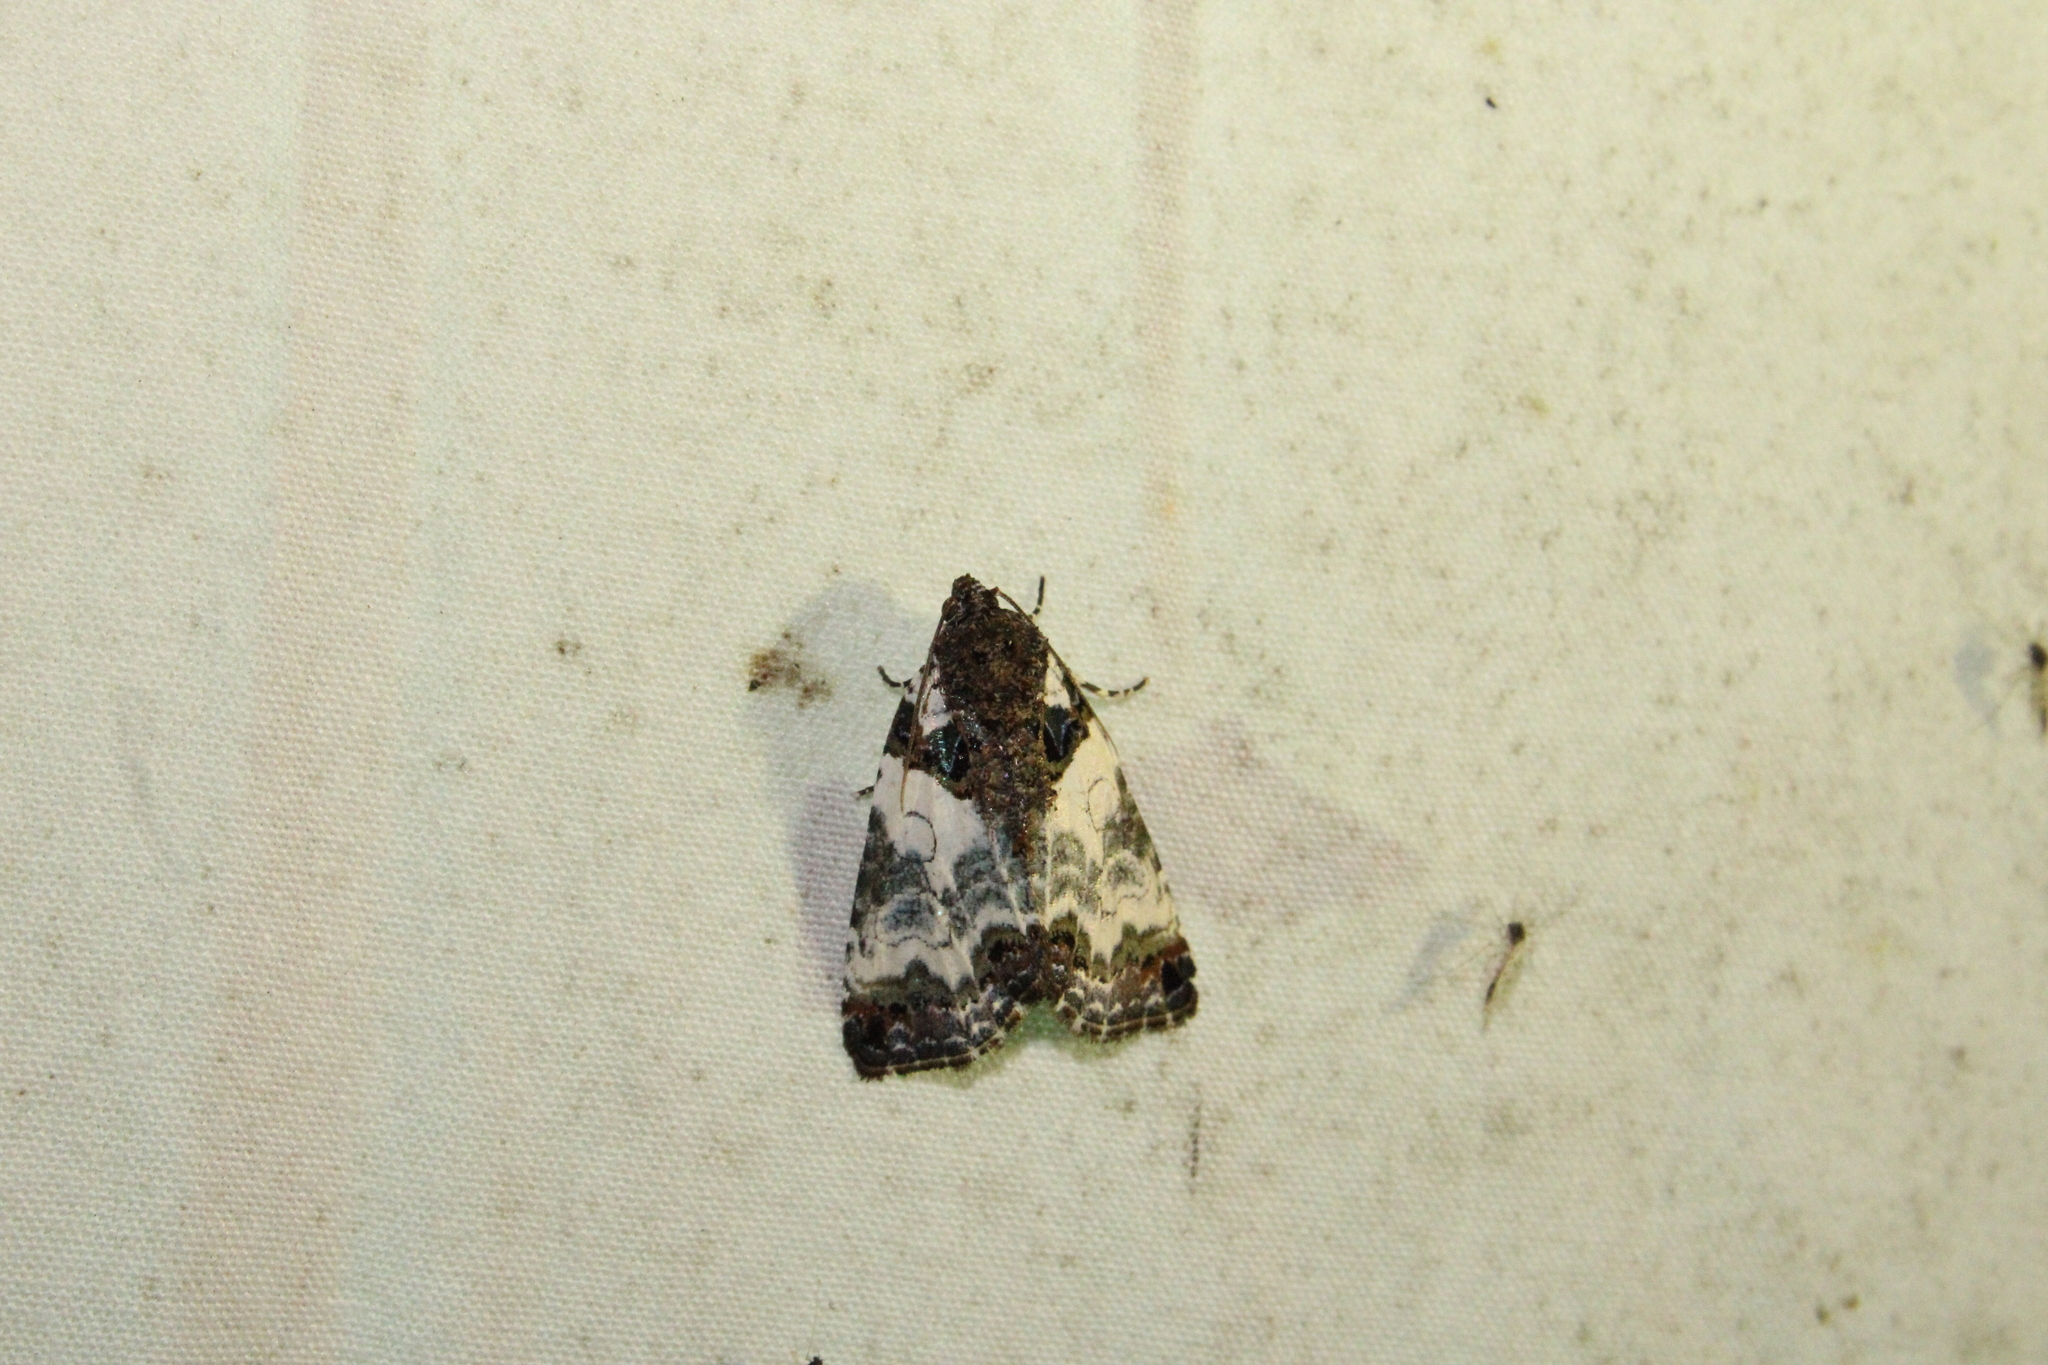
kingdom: Animalia
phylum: Arthropoda
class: Insecta
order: Lepidoptera
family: Noctuidae
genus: Cerma
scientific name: Cerma cerintha
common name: Tufted bird-dropping moth
